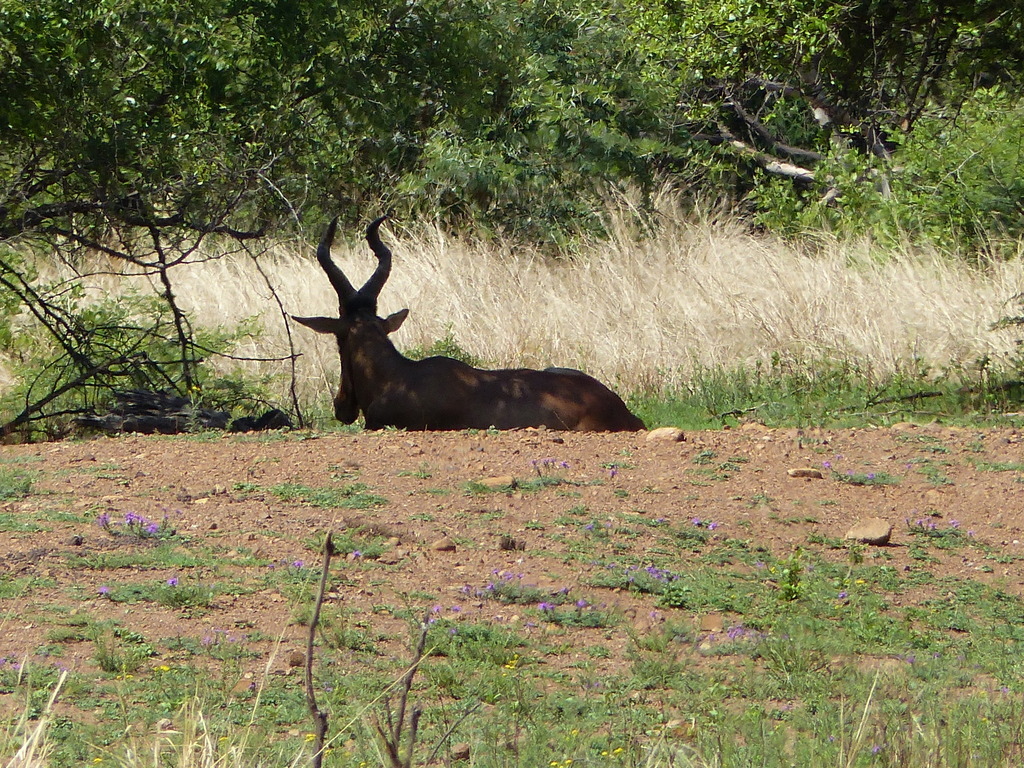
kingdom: Animalia
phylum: Chordata
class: Mammalia
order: Artiodactyla
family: Bovidae
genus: Alcelaphus
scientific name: Alcelaphus caama
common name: Red hartebeest
